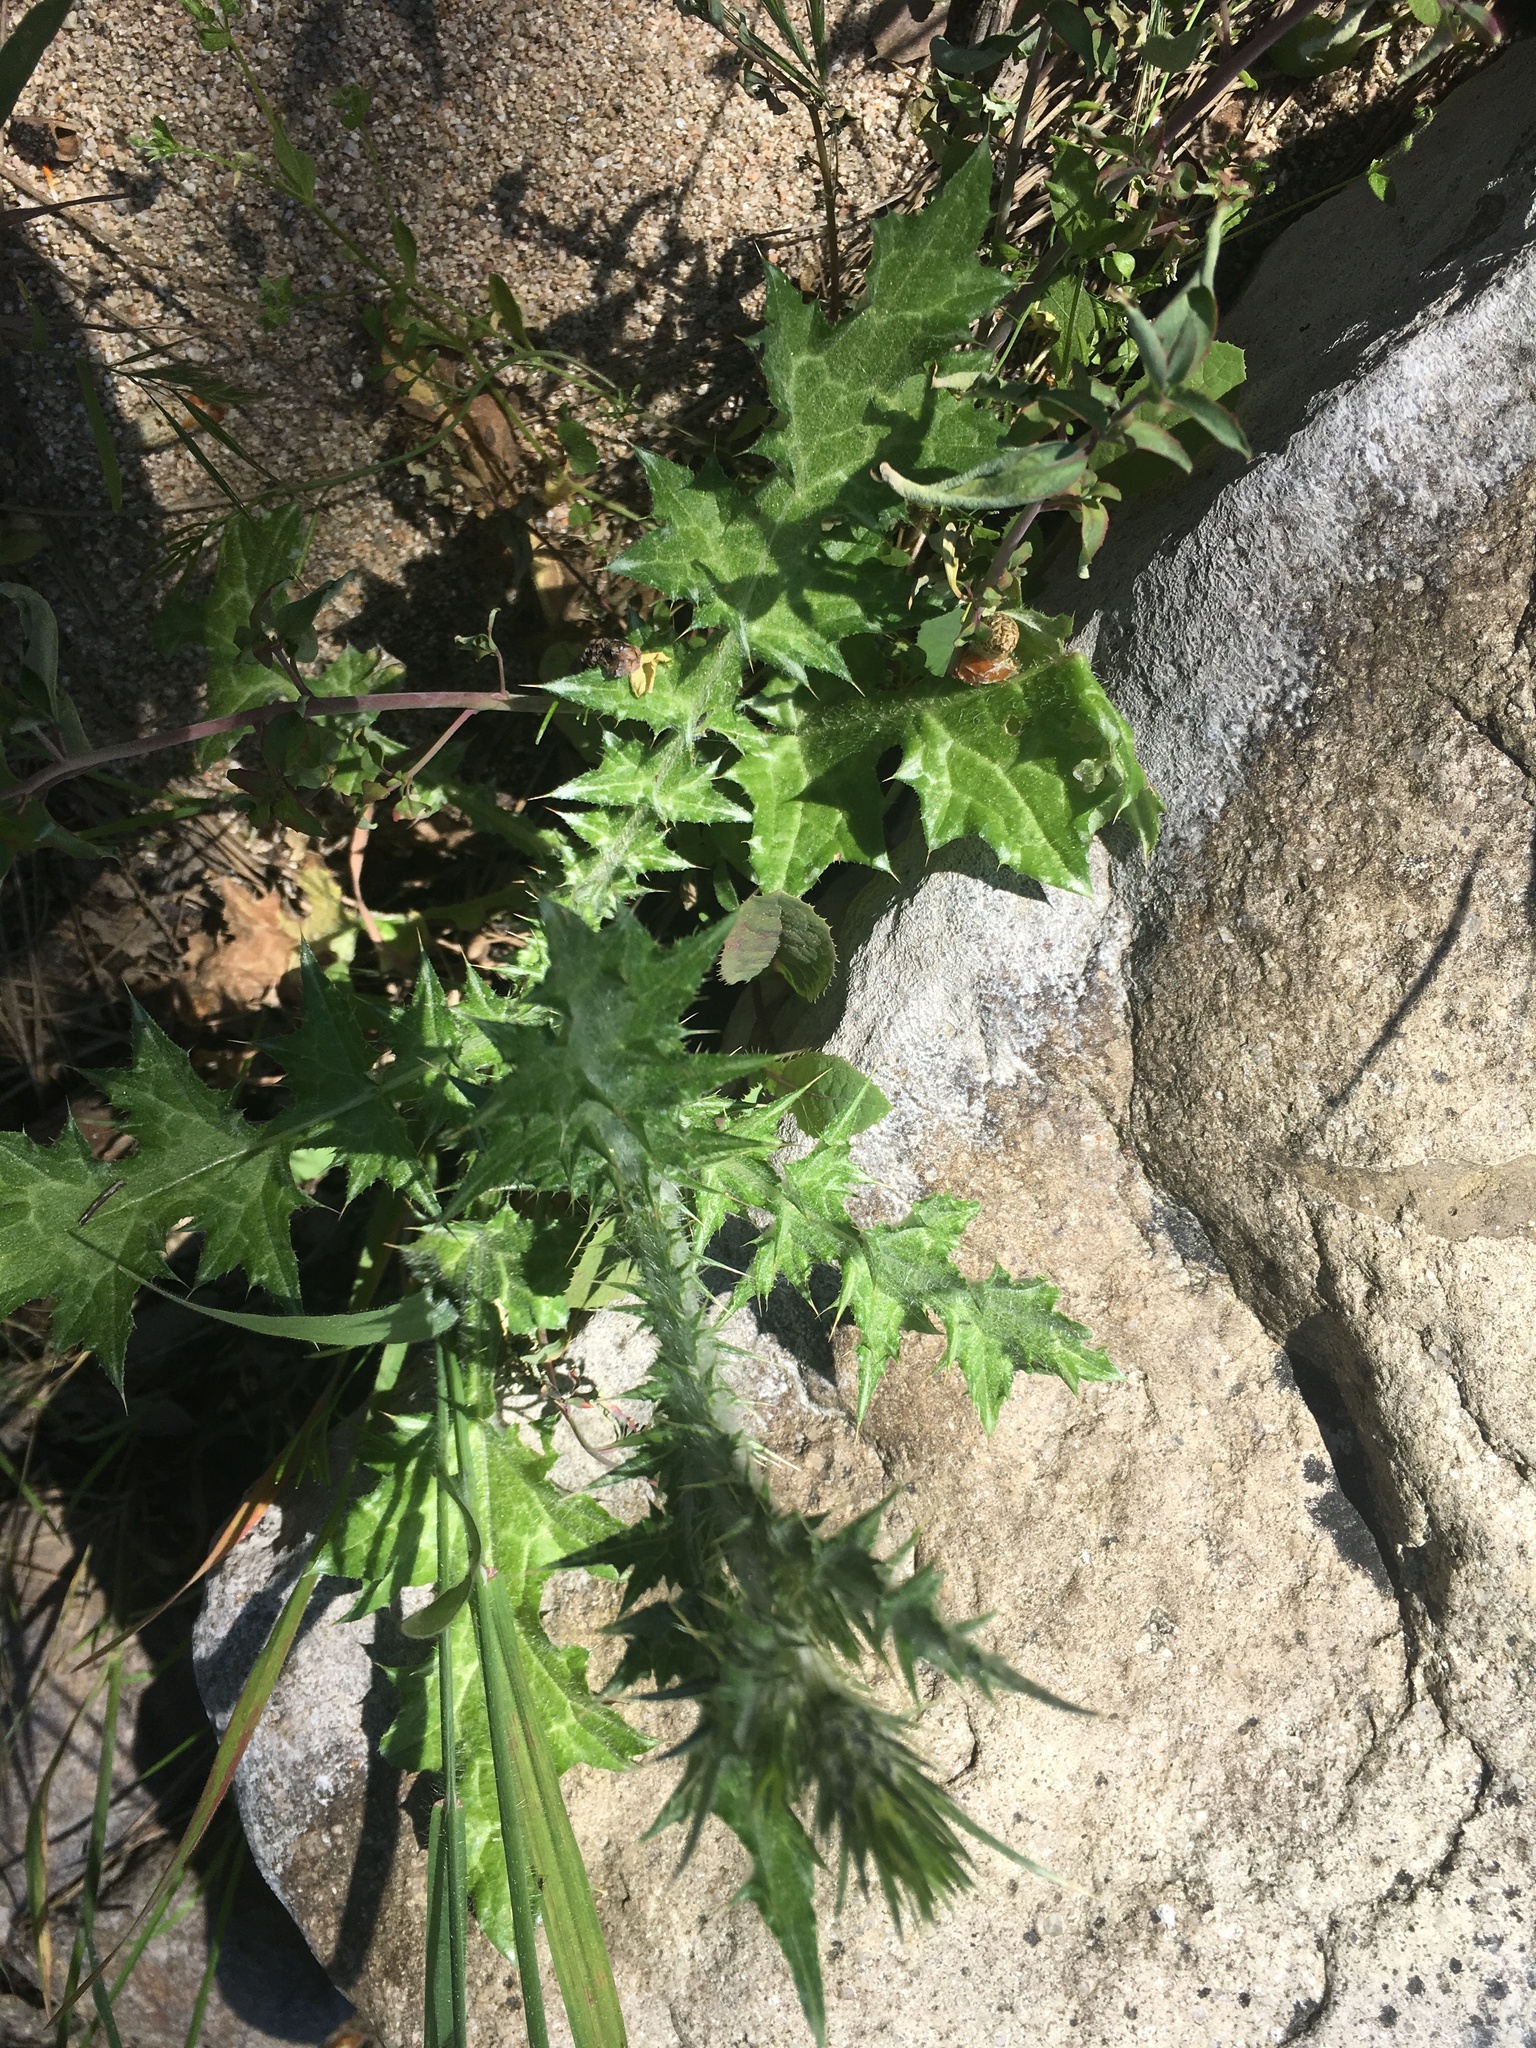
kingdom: Plantae
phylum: Tracheophyta
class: Magnoliopsida
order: Asterales
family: Asteraceae
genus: Carduus
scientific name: Carduus pycnocephalus
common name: Plymouth thistle
